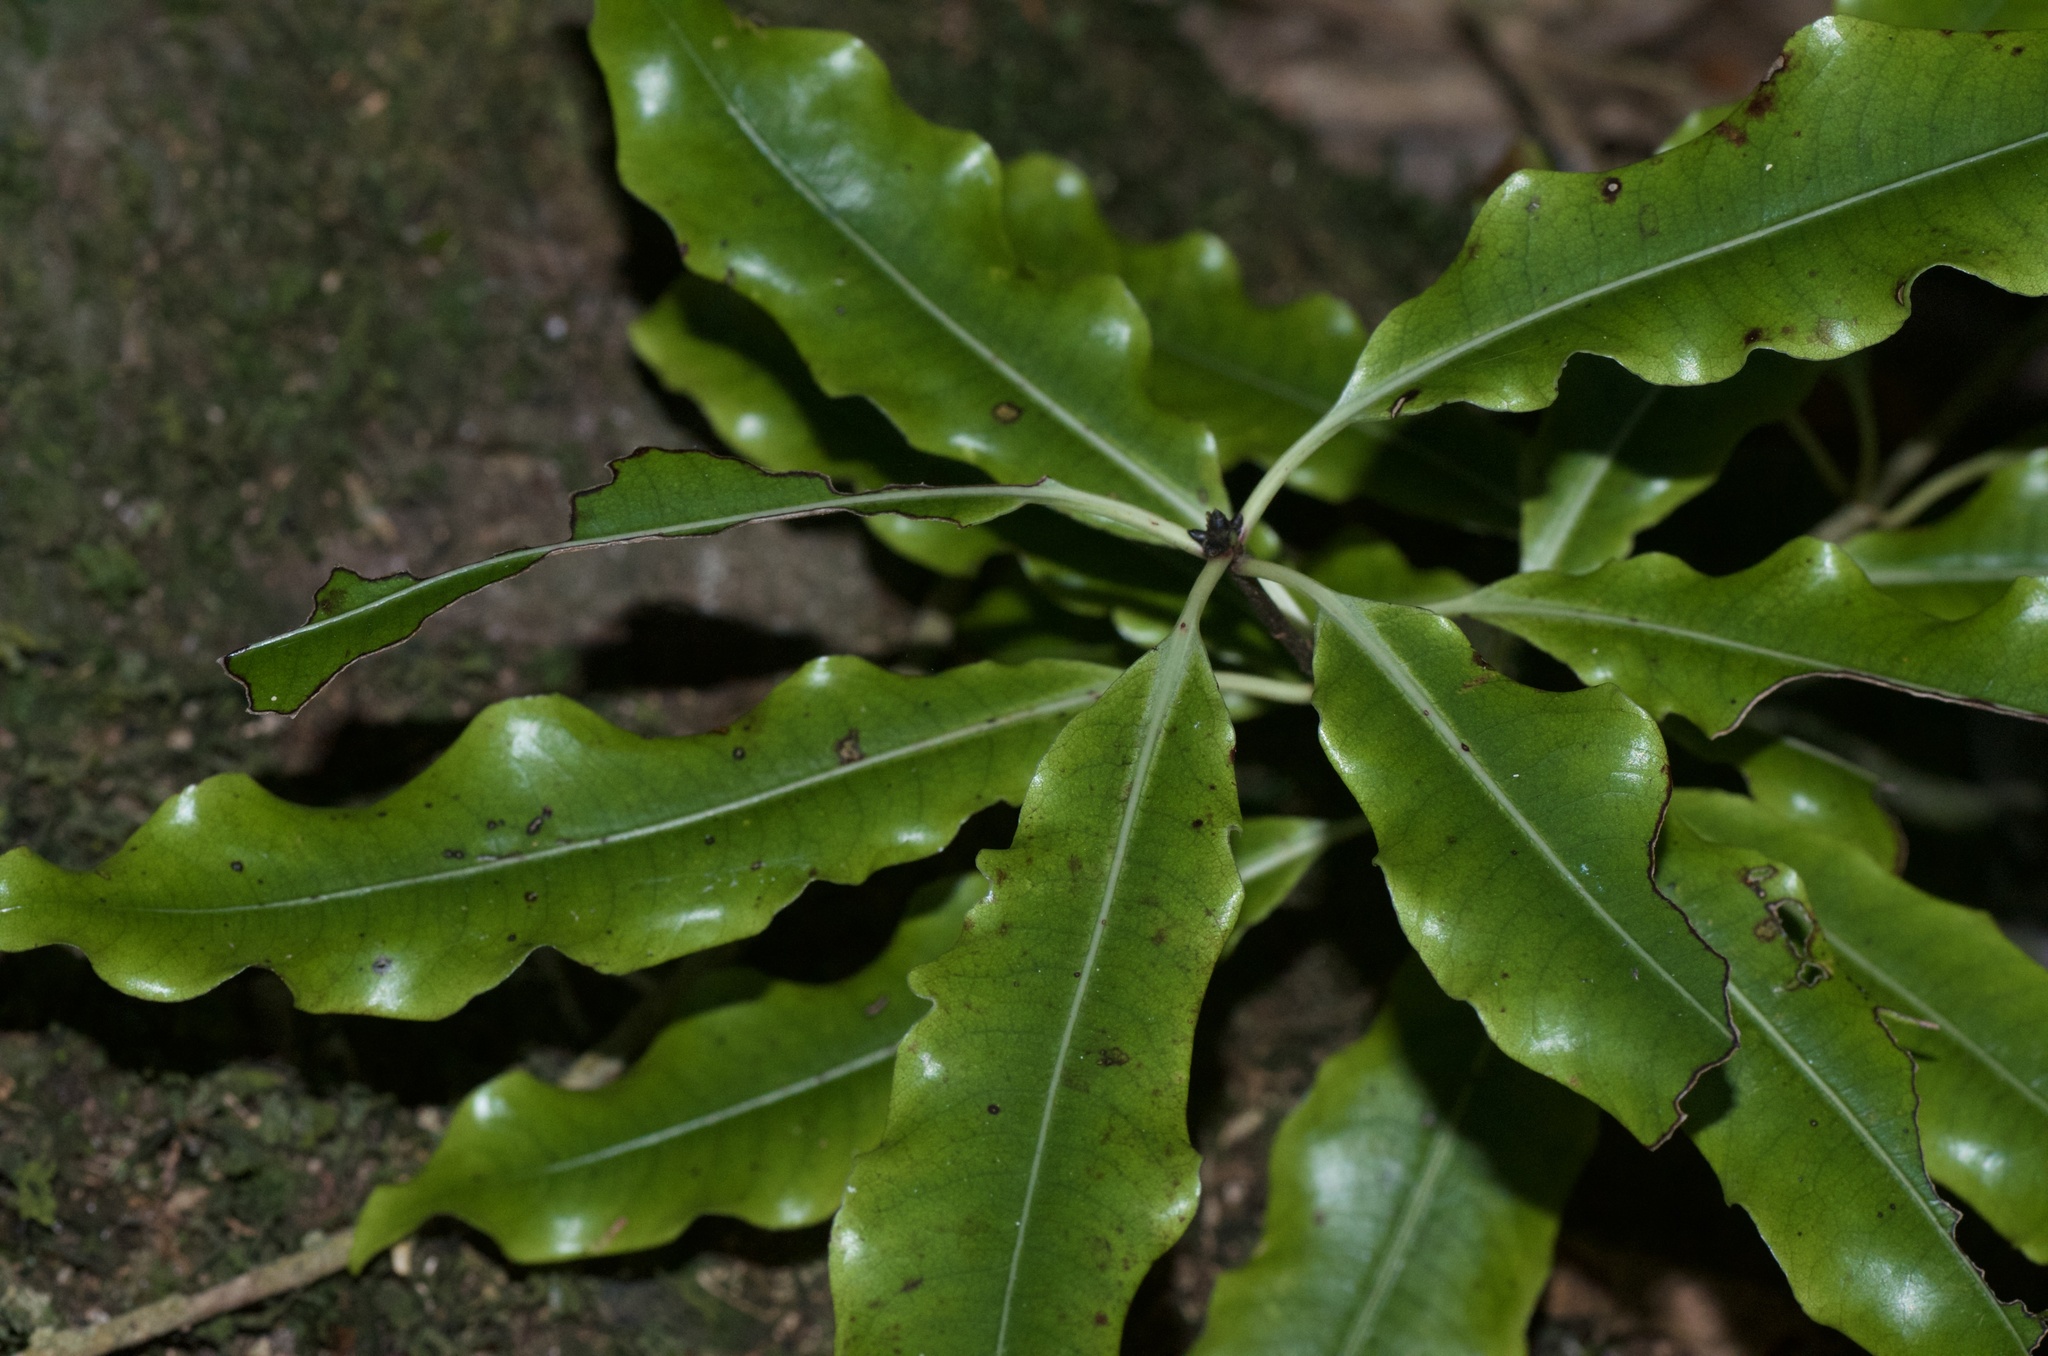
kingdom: Plantae
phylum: Tracheophyta
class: Magnoliopsida
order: Apiales
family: Pittosporaceae
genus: Pittosporum
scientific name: Pittosporum eugenioides
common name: Lemonwood
